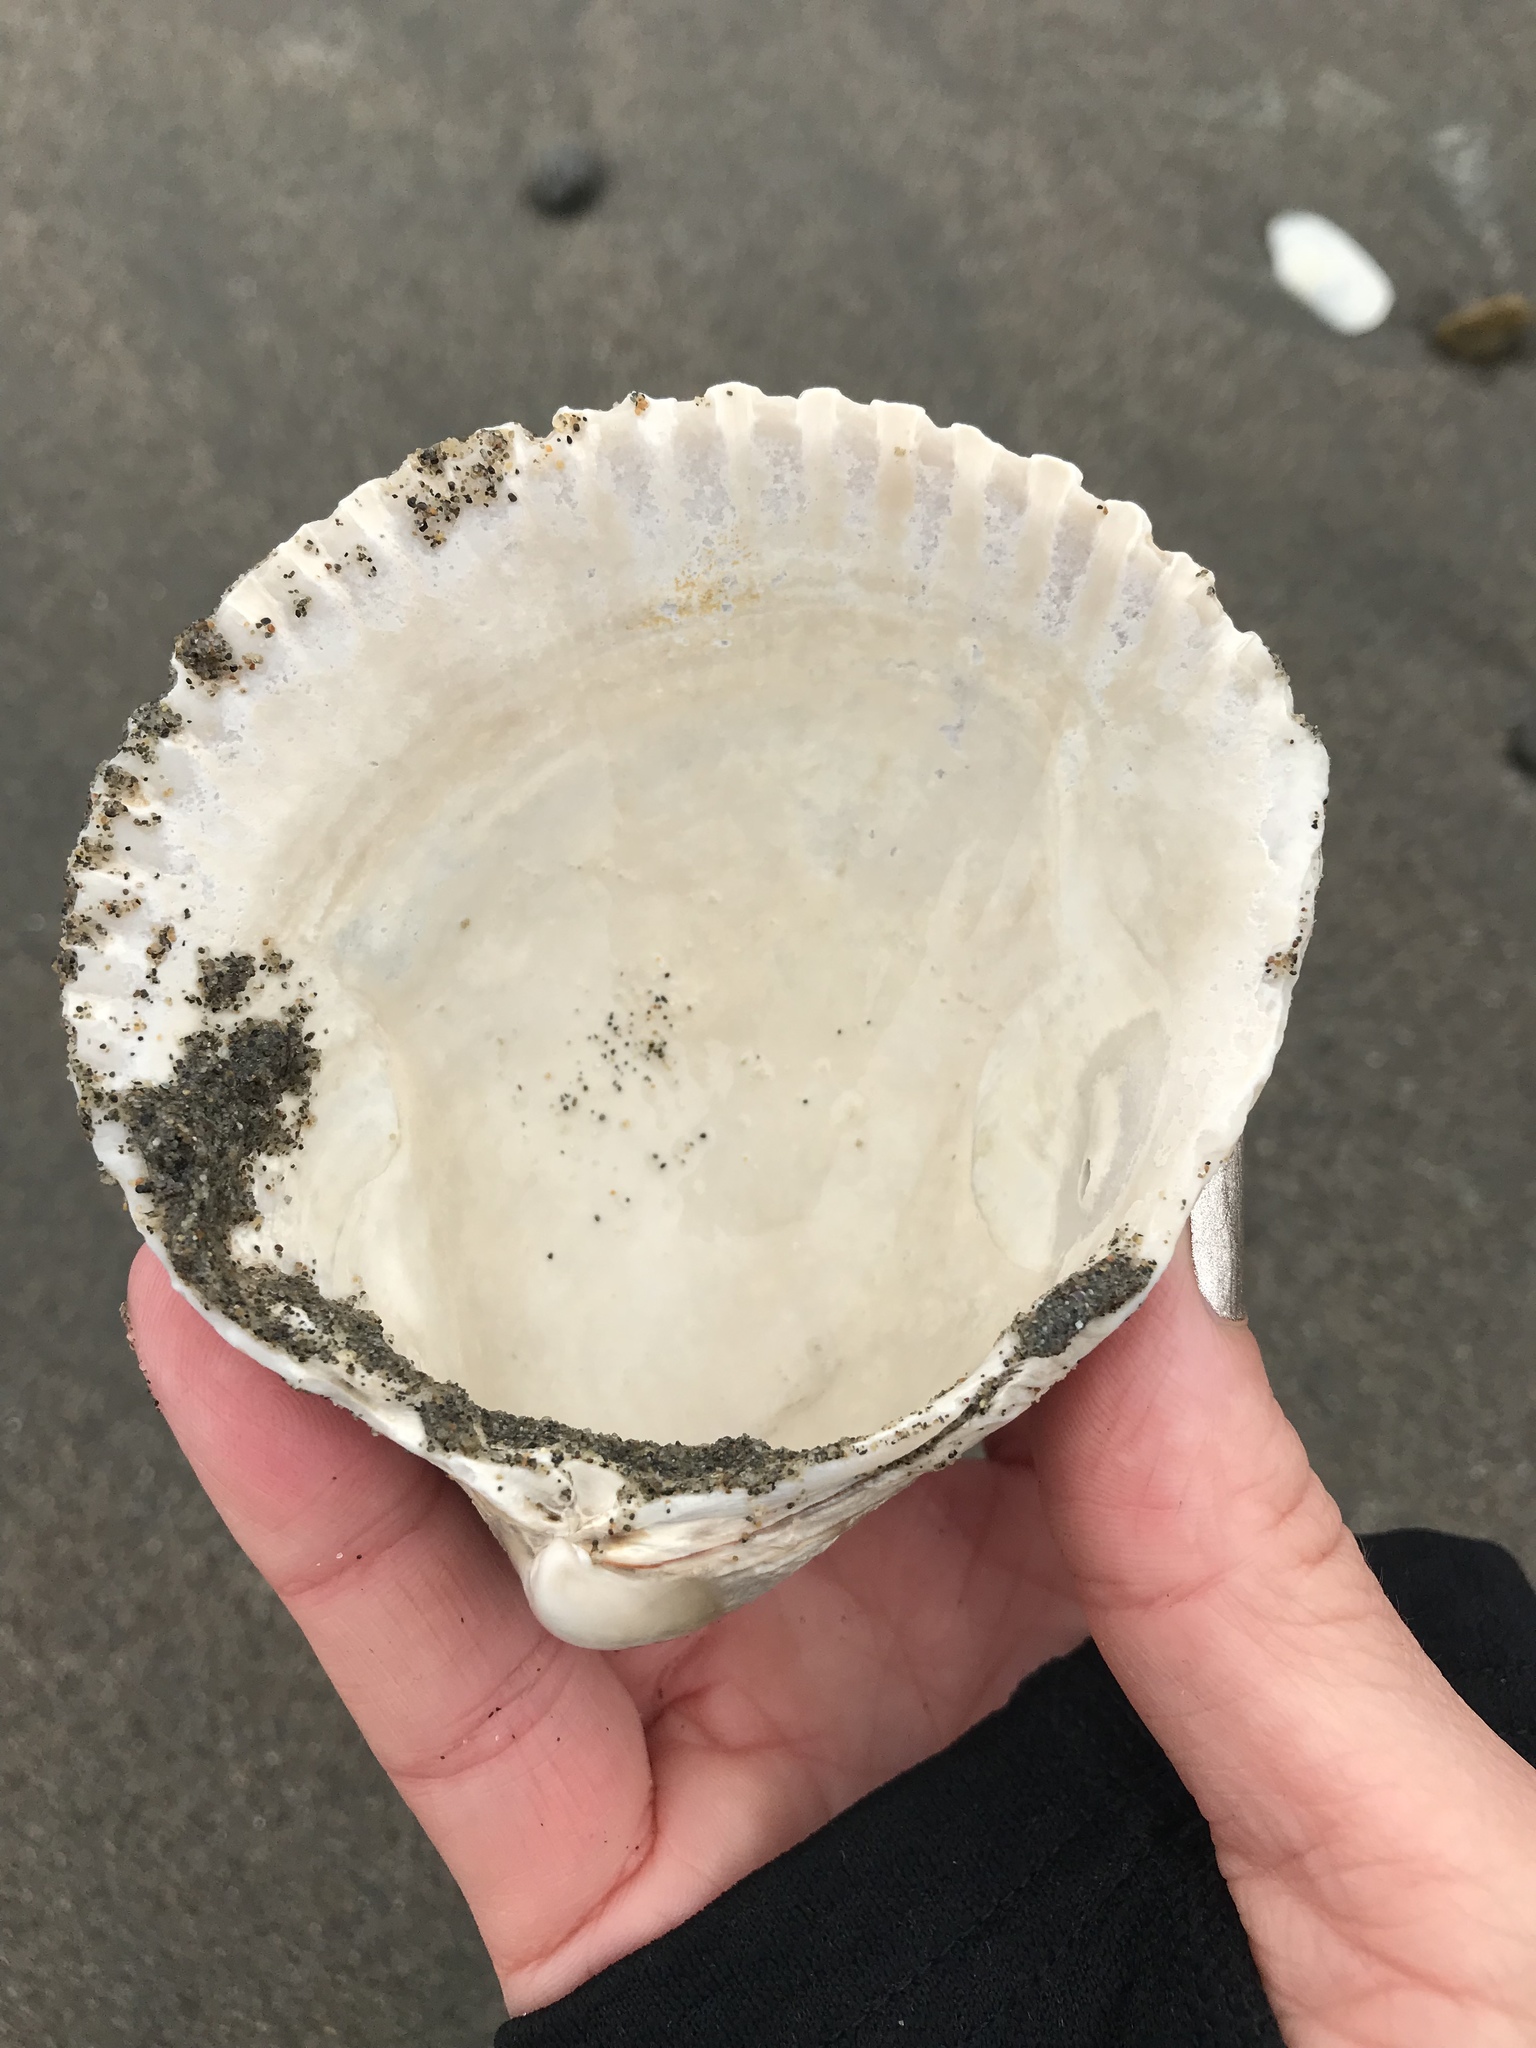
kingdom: Animalia
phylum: Mollusca
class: Bivalvia
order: Cardiida
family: Cardiidae
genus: Clinocardium
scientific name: Clinocardium nuttallii
